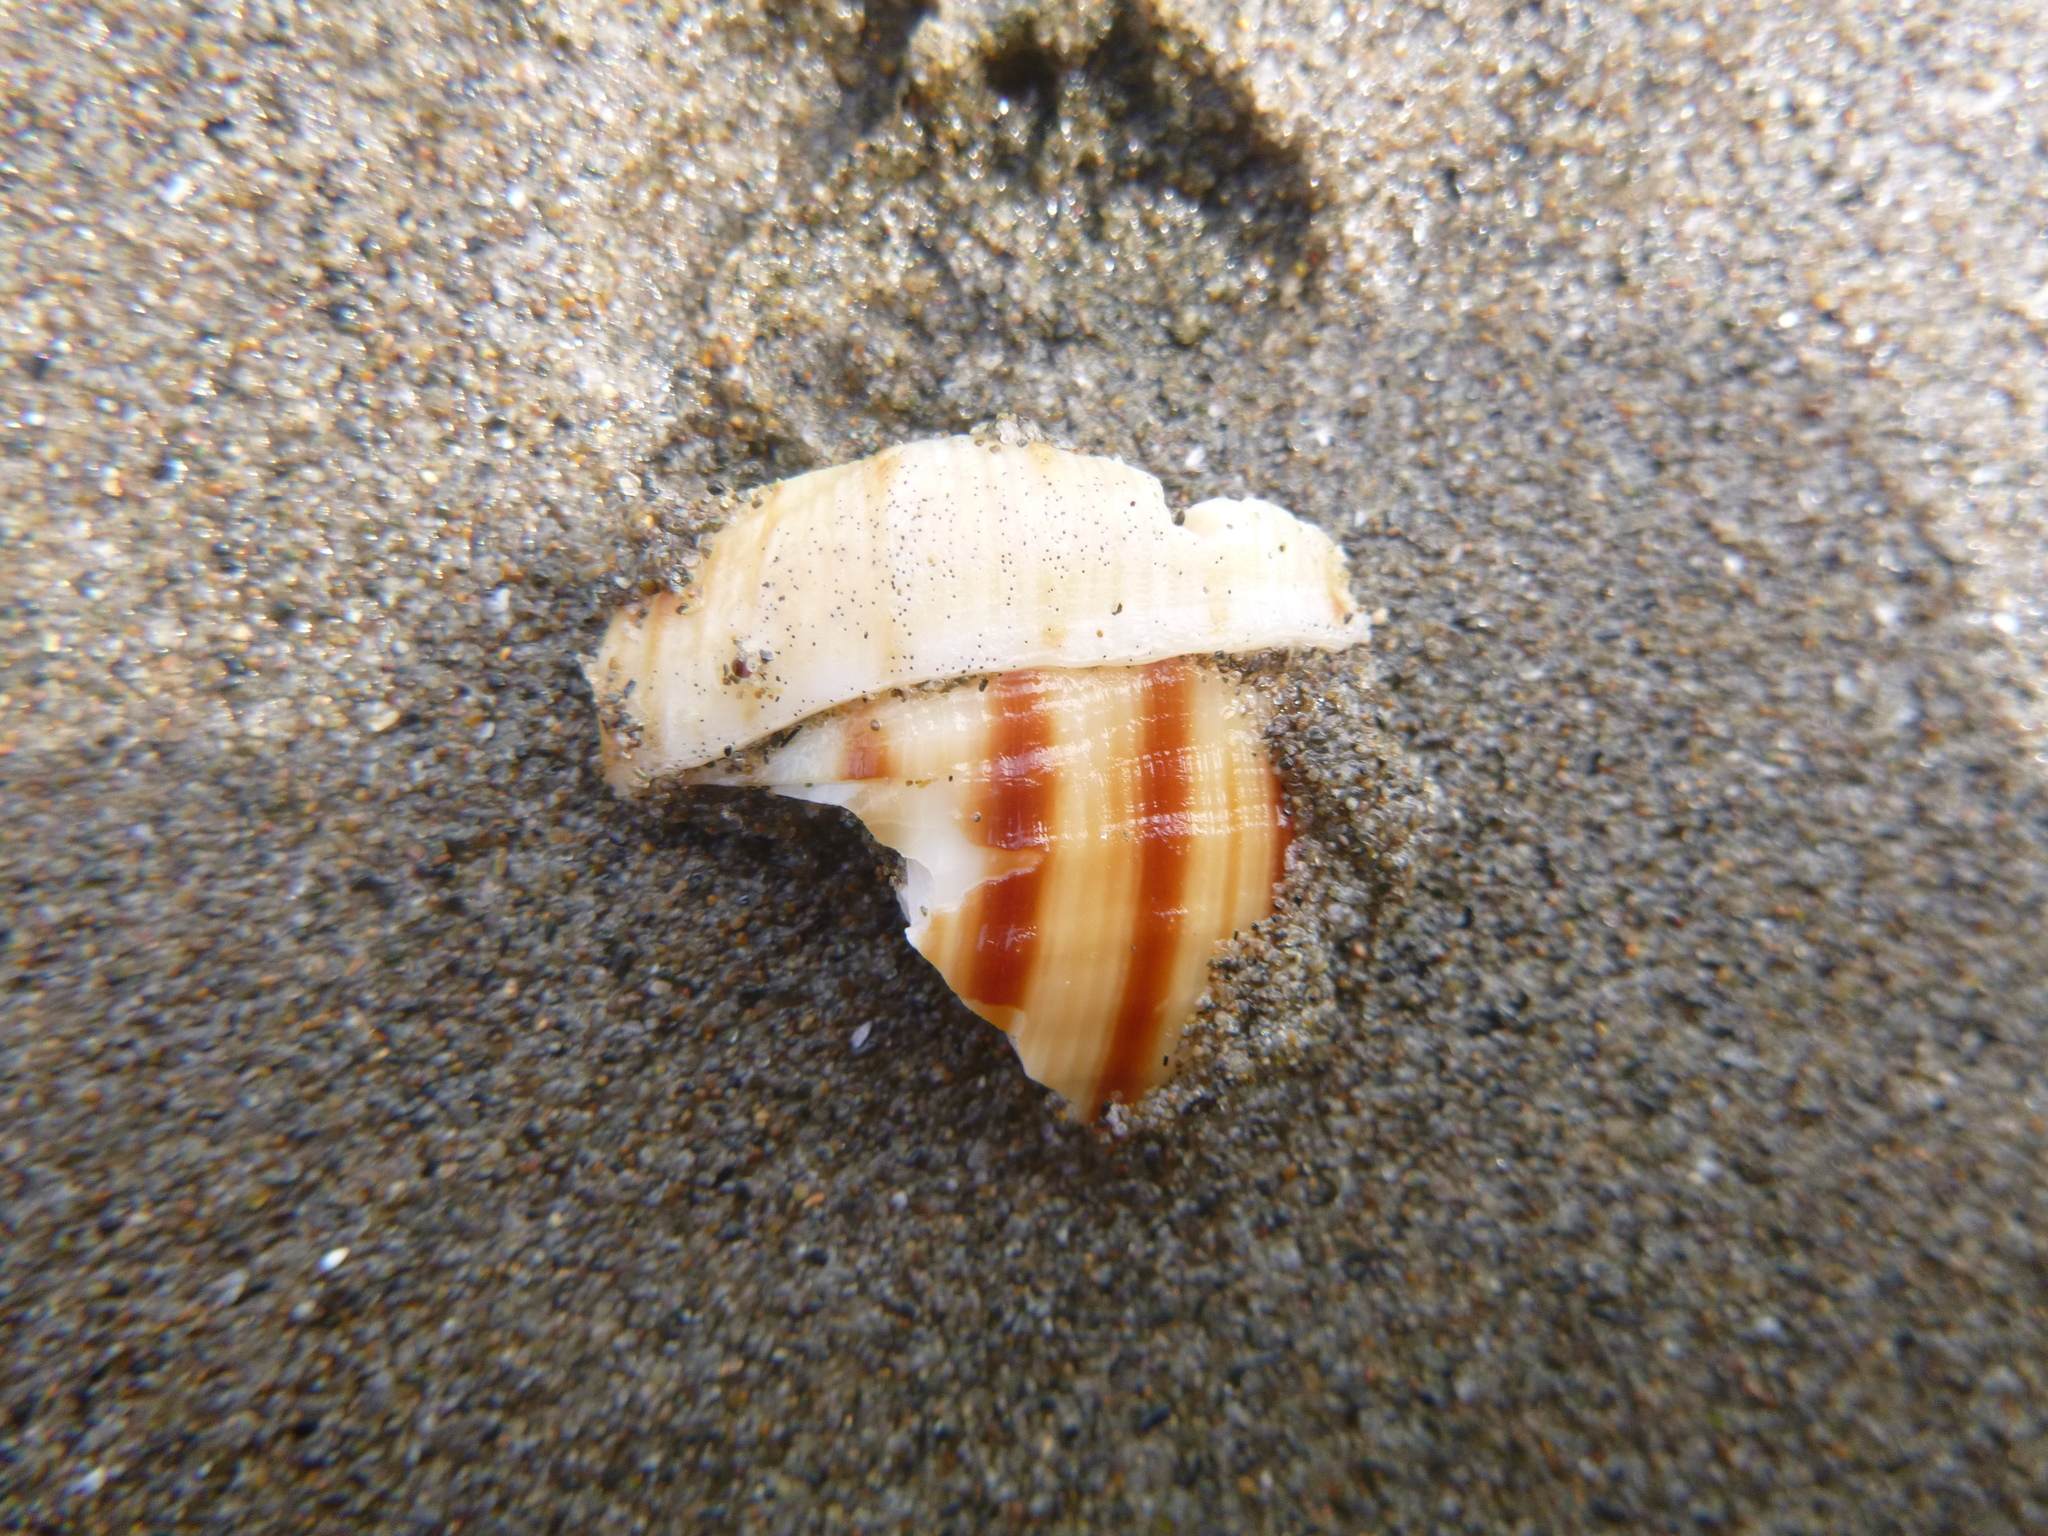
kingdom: Animalia
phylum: Mollusca
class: Gastropoda
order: Littorinimorpha
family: Cymatiidae
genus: Argobuccinum
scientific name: Argobuccinum pustulosum
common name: Pustular triton
